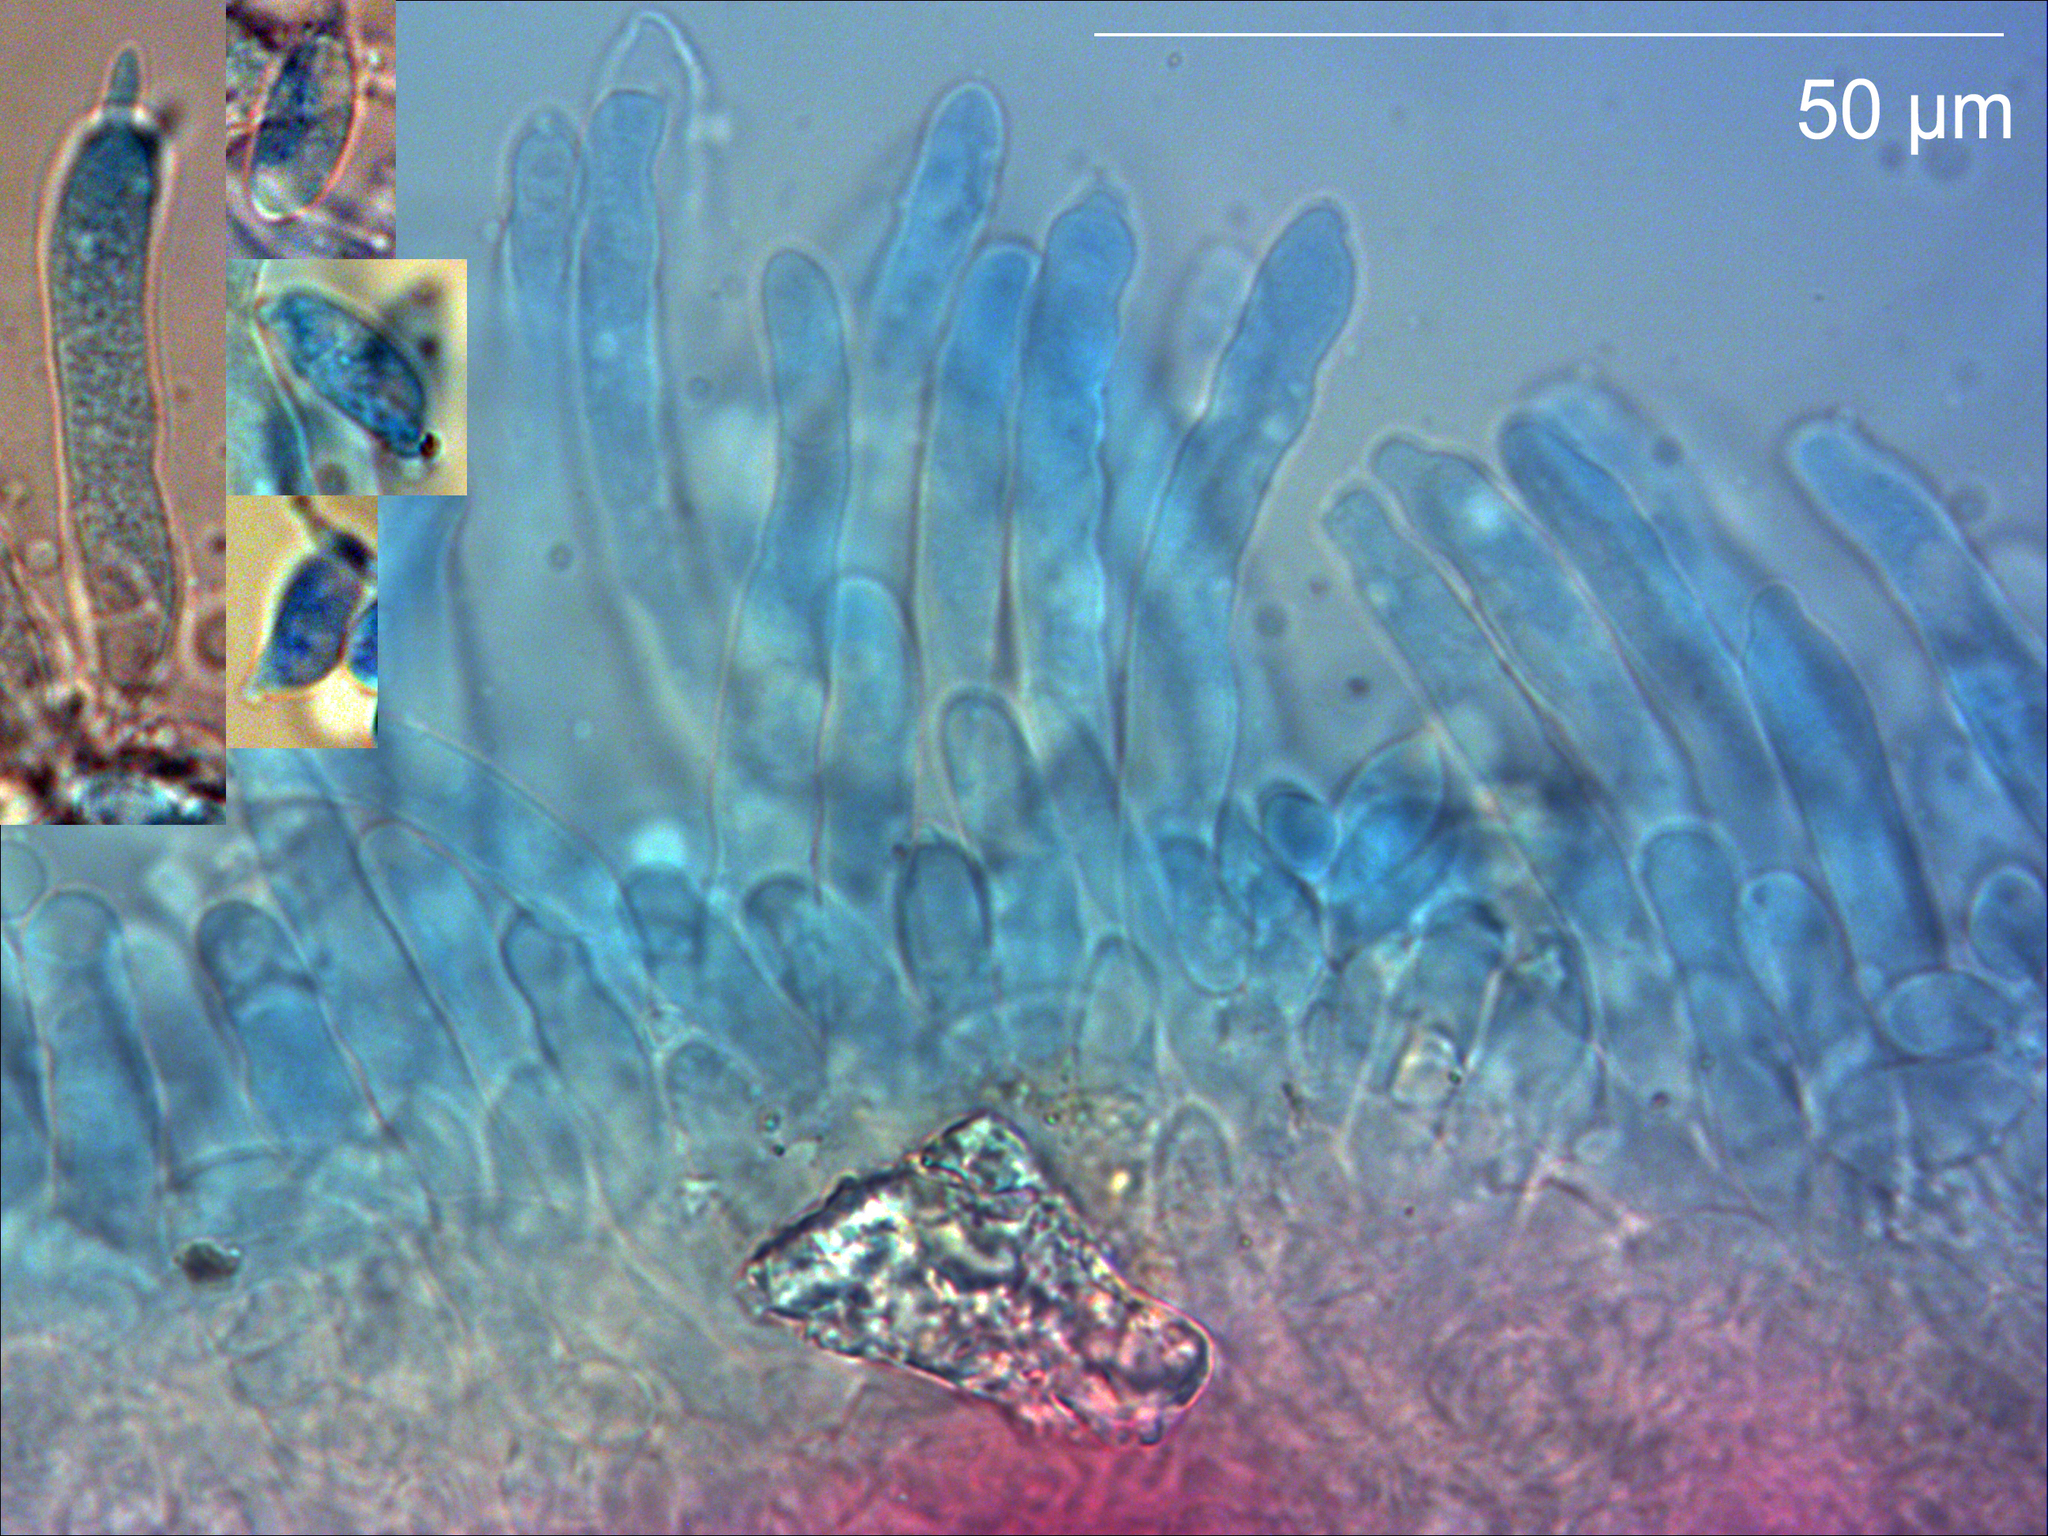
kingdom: Fungi
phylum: Basidiomycota
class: Exobasidiomycetes
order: Exobasidiales
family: Exobasidiaceae
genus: Exobasidium
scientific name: Exobasidium gaultheriae
